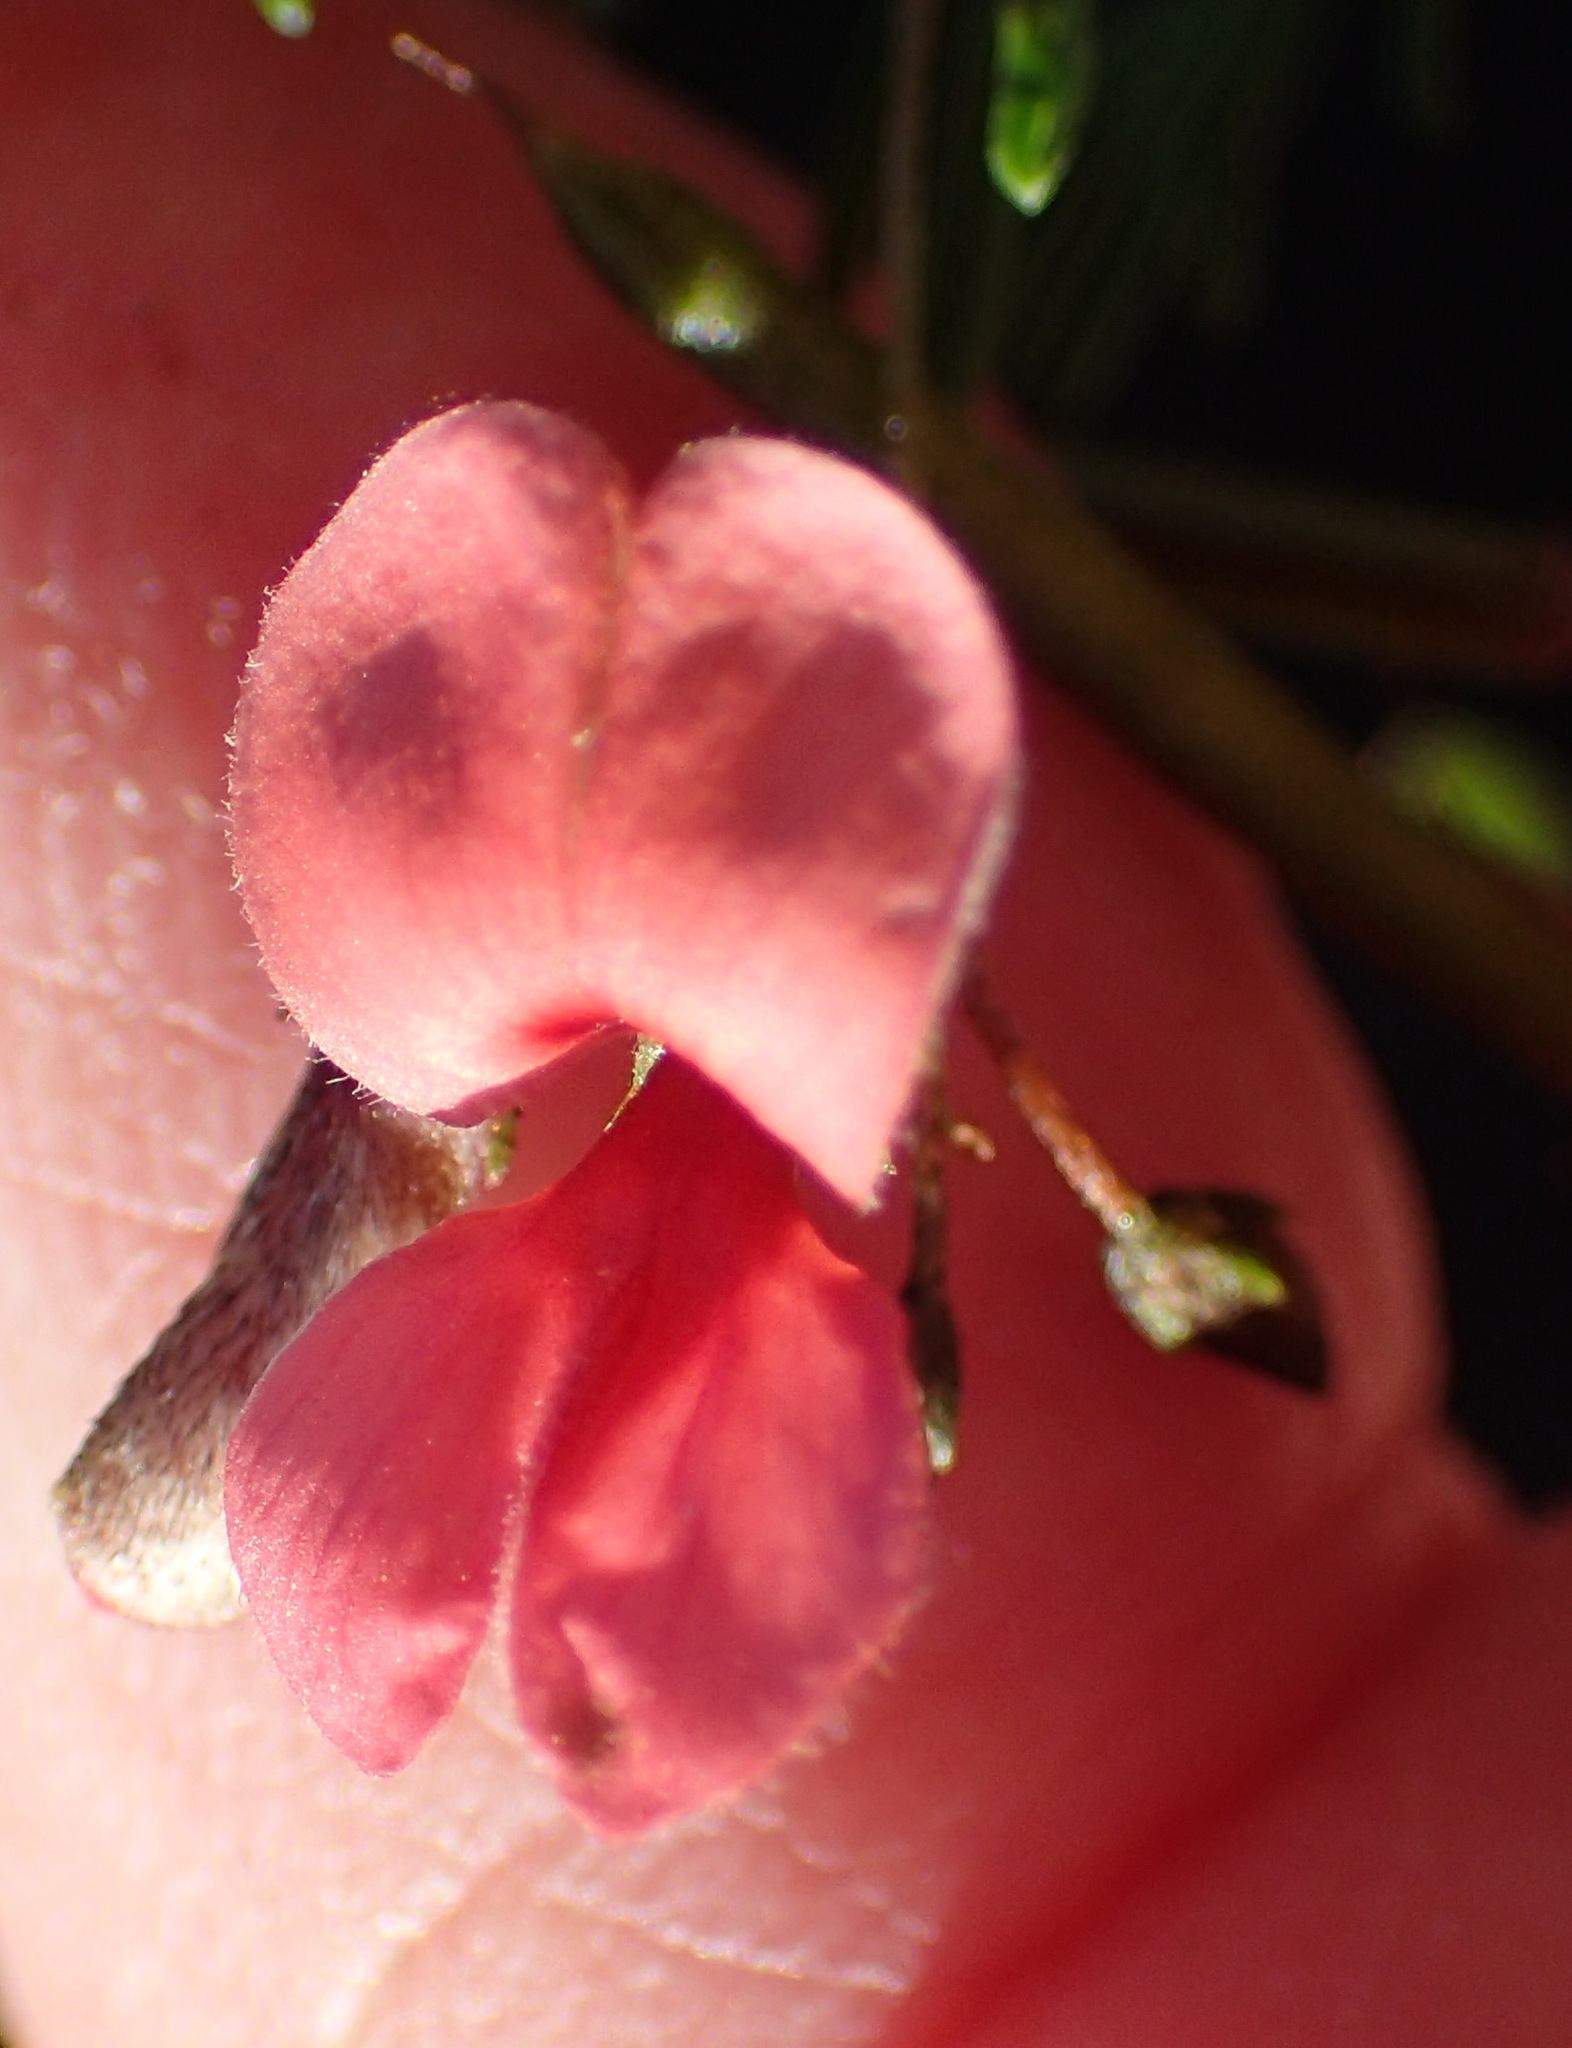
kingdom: Plantae
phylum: Tracheophyta
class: Magnoliopsida
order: Fabales
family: Fabaceae
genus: Indigofera
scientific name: Indigofera verrucosa
